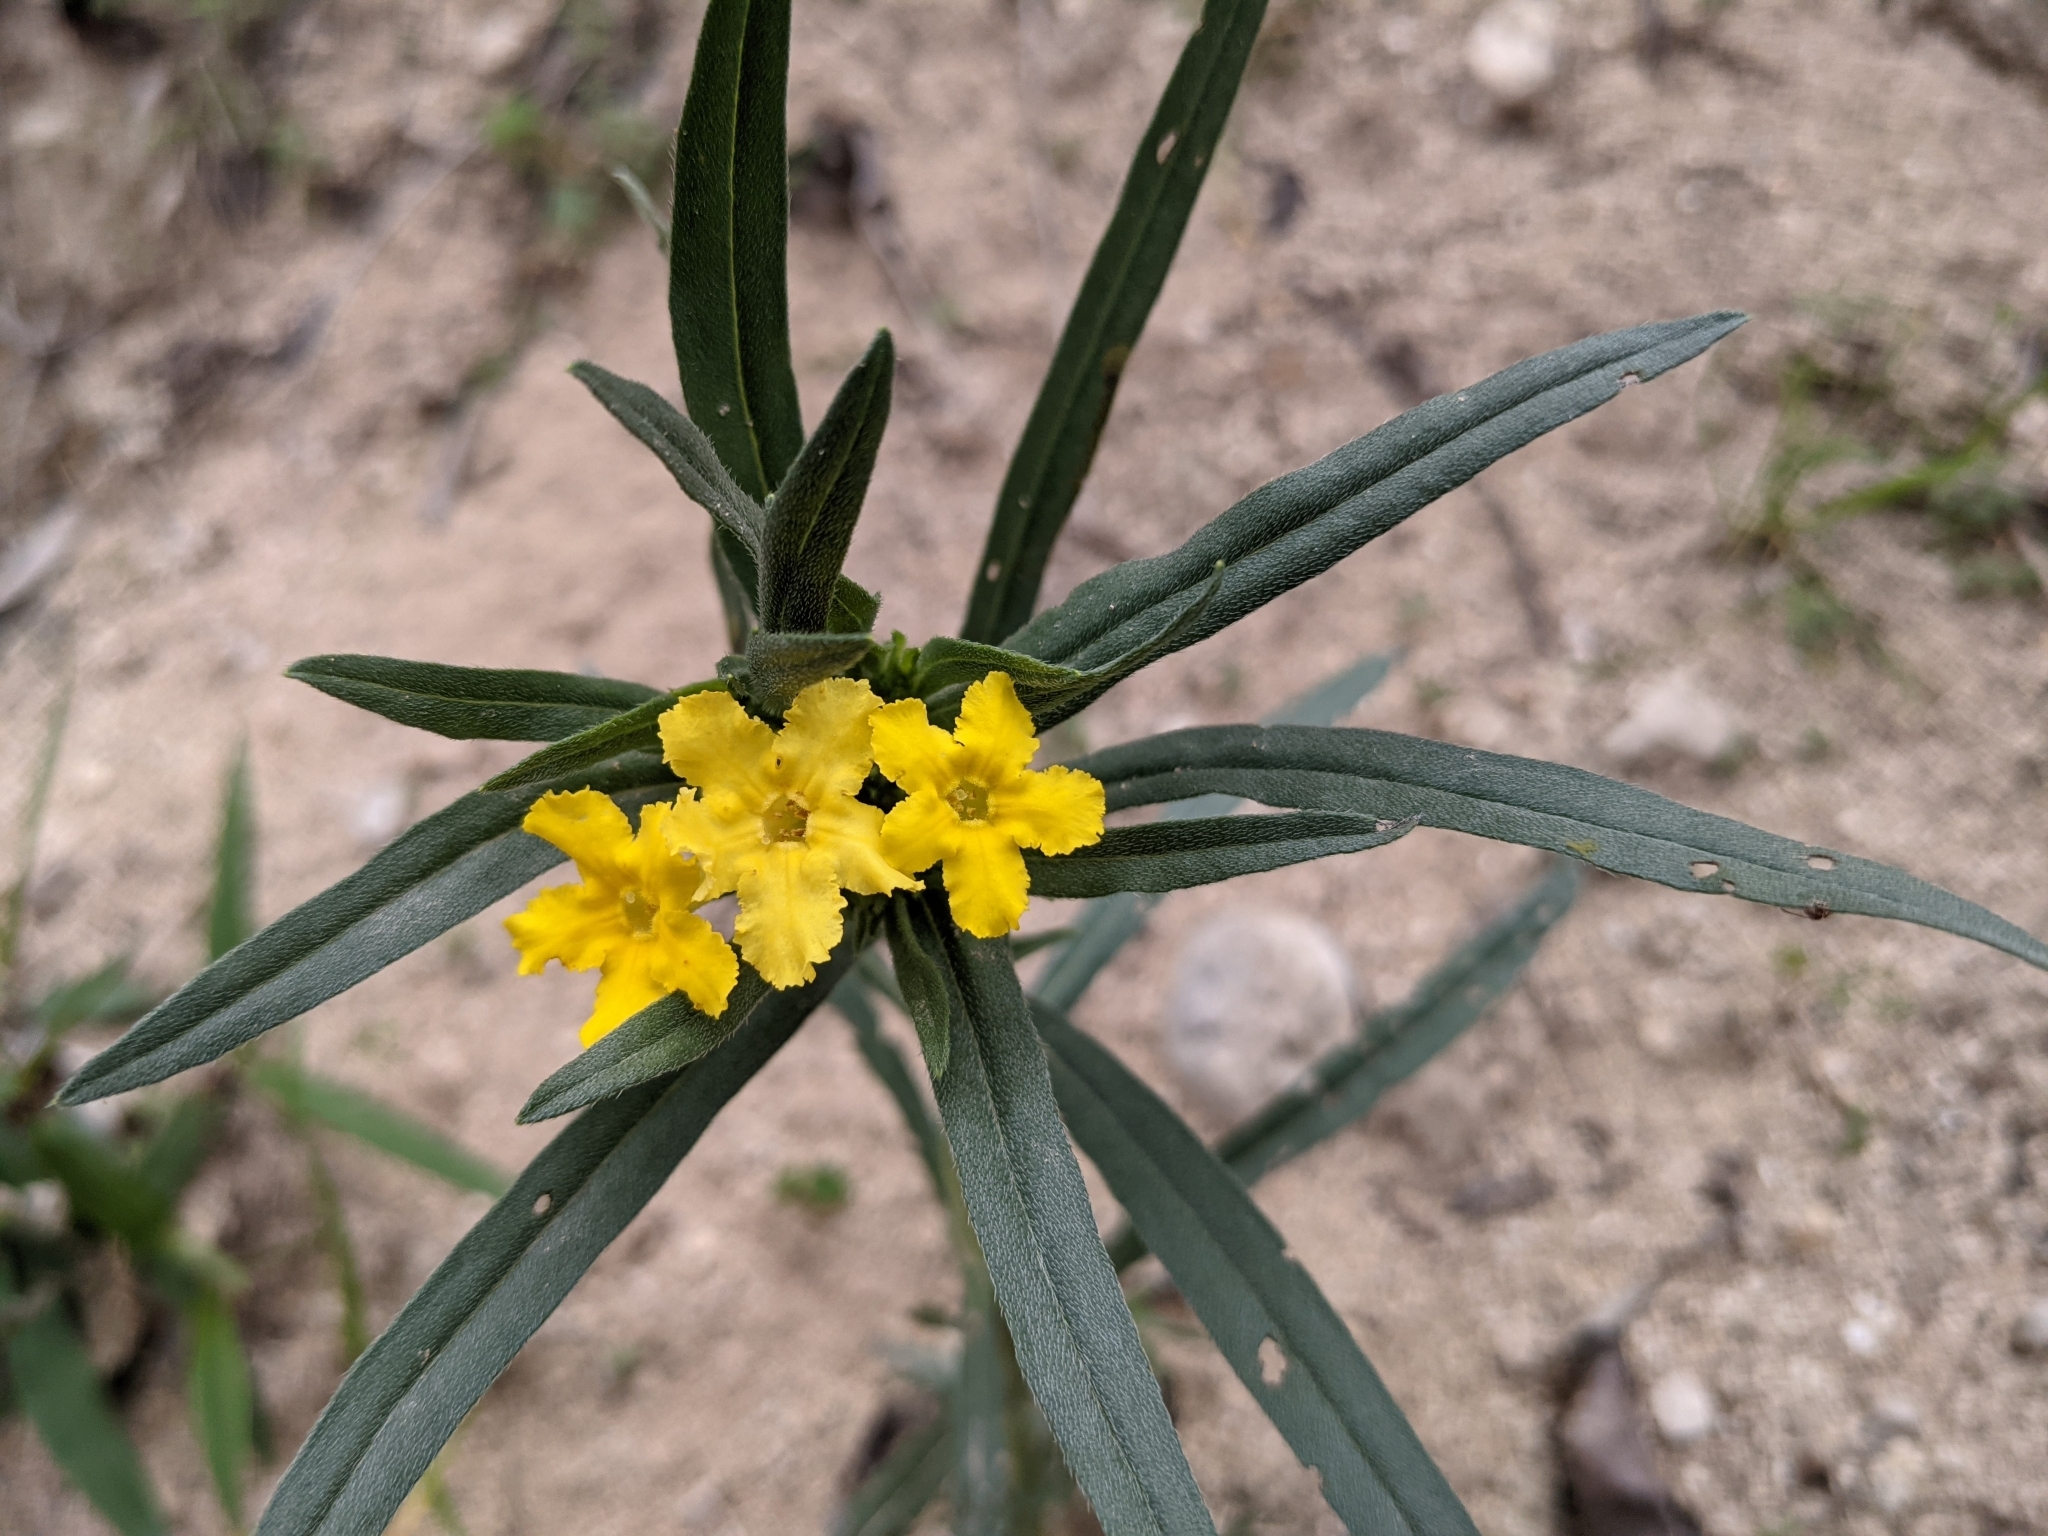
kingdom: Plantae
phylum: Tracheophyta
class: Magnoliopsida
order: Boraginales
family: Boraginaceae
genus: Lithospermum
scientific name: Lithospermum incisum
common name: Fringed gromwell
